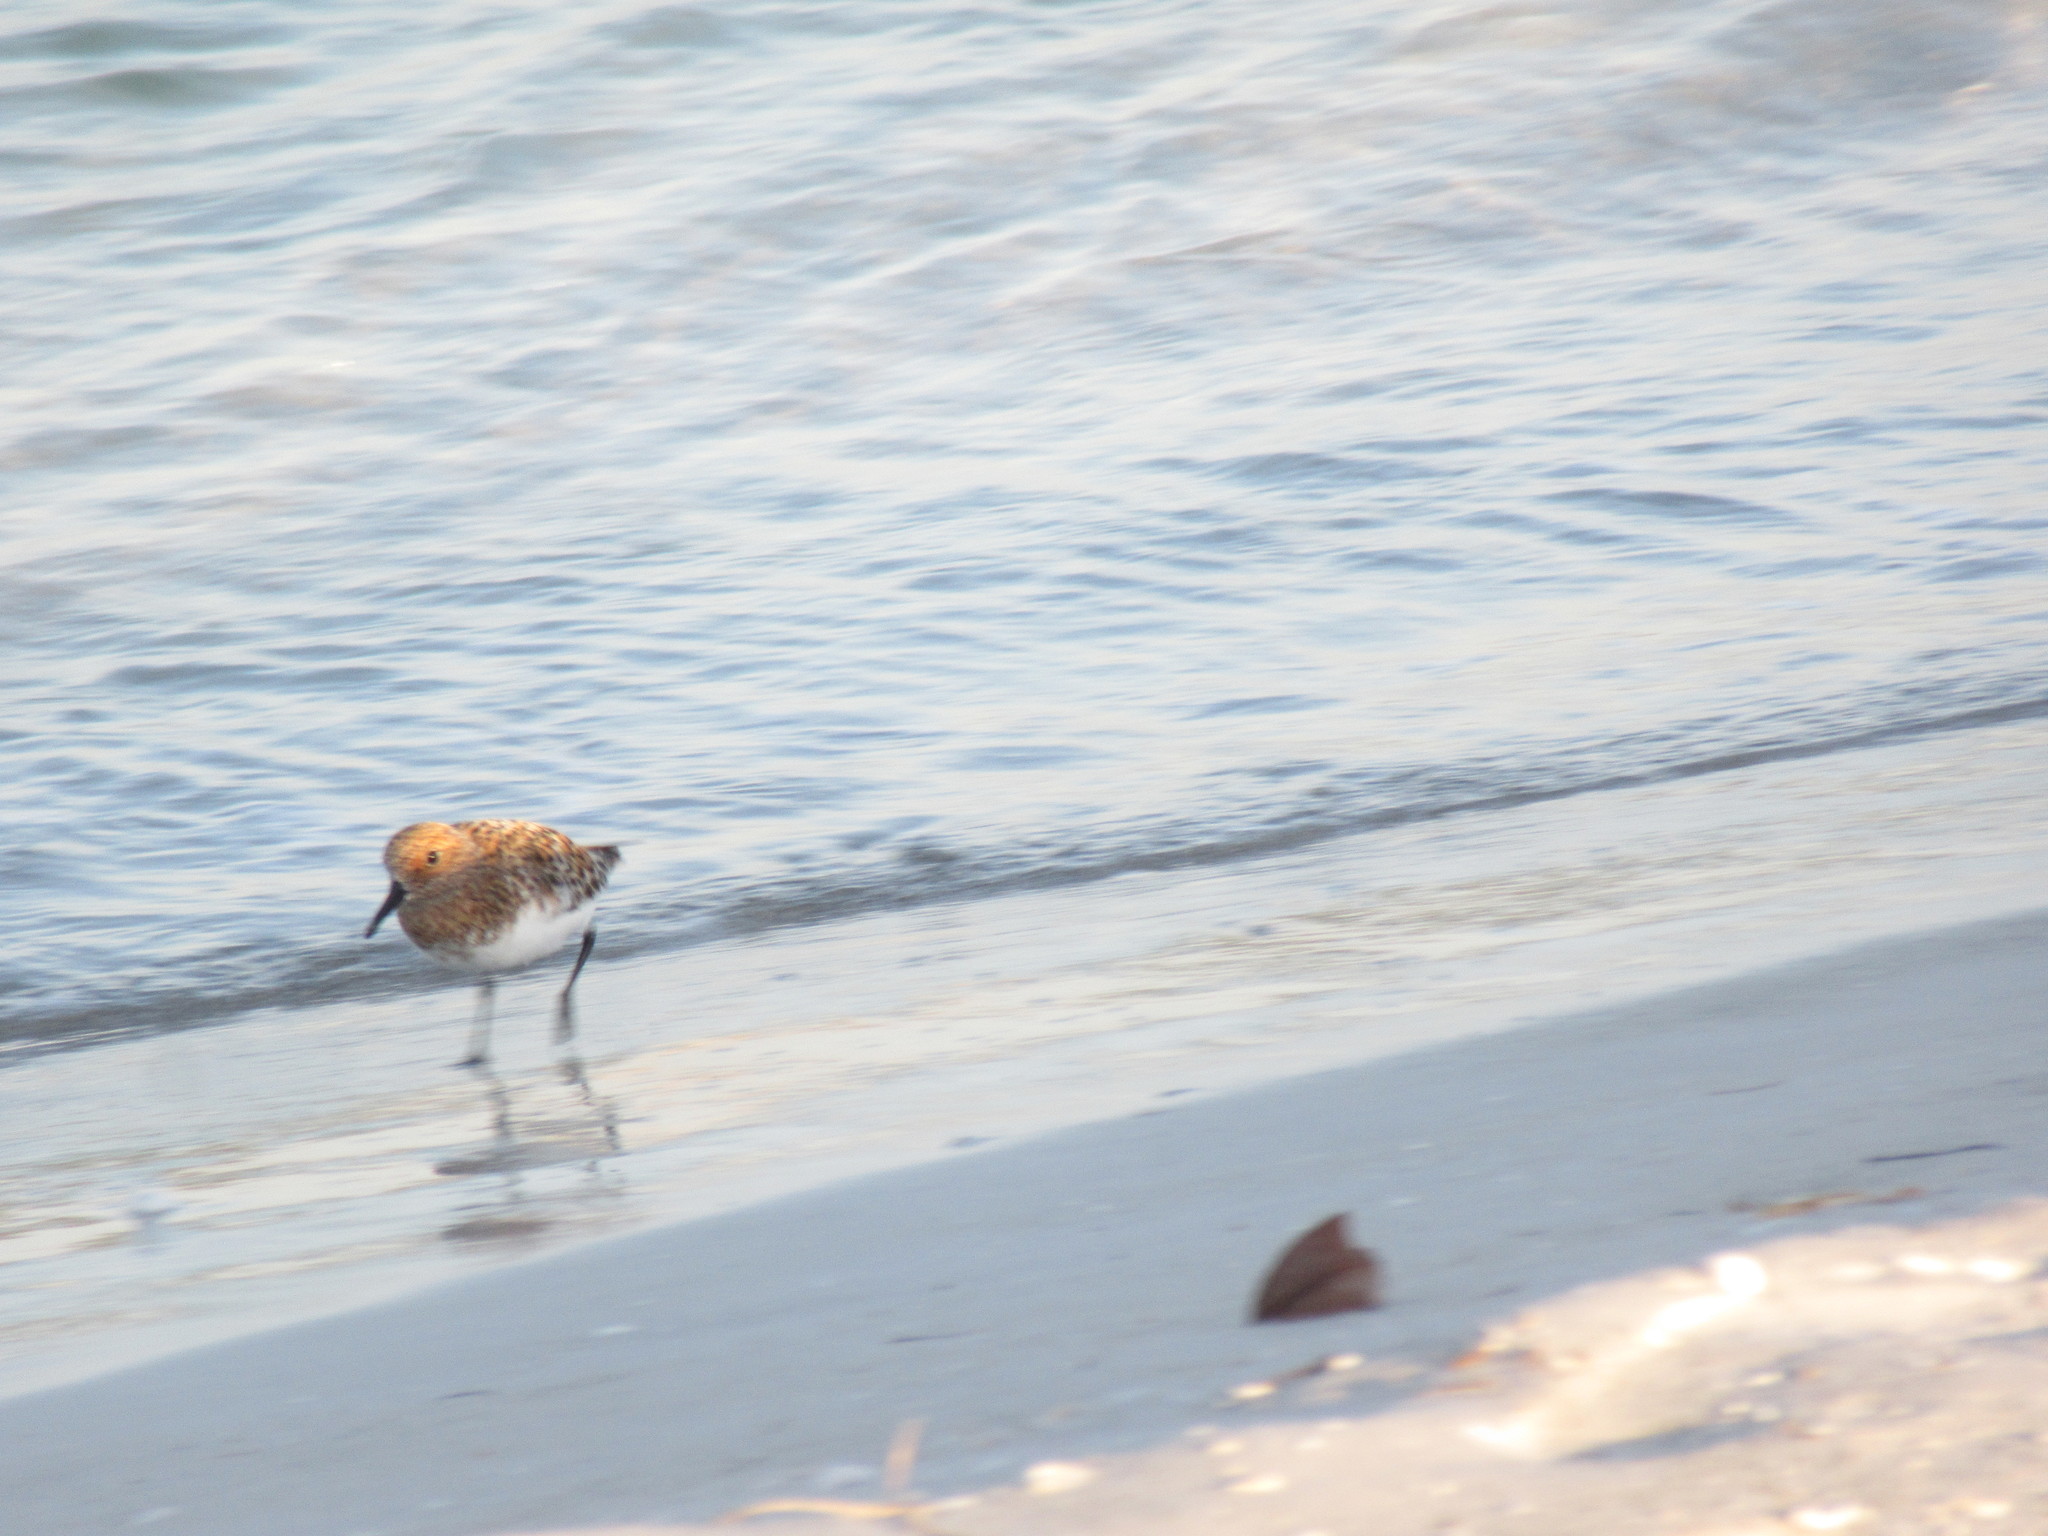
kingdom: Animalia
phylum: Chordata
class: Aves
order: Charadriiformes
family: Scolopacidae
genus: Calidris
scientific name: Calidris alba
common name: Sanderling
